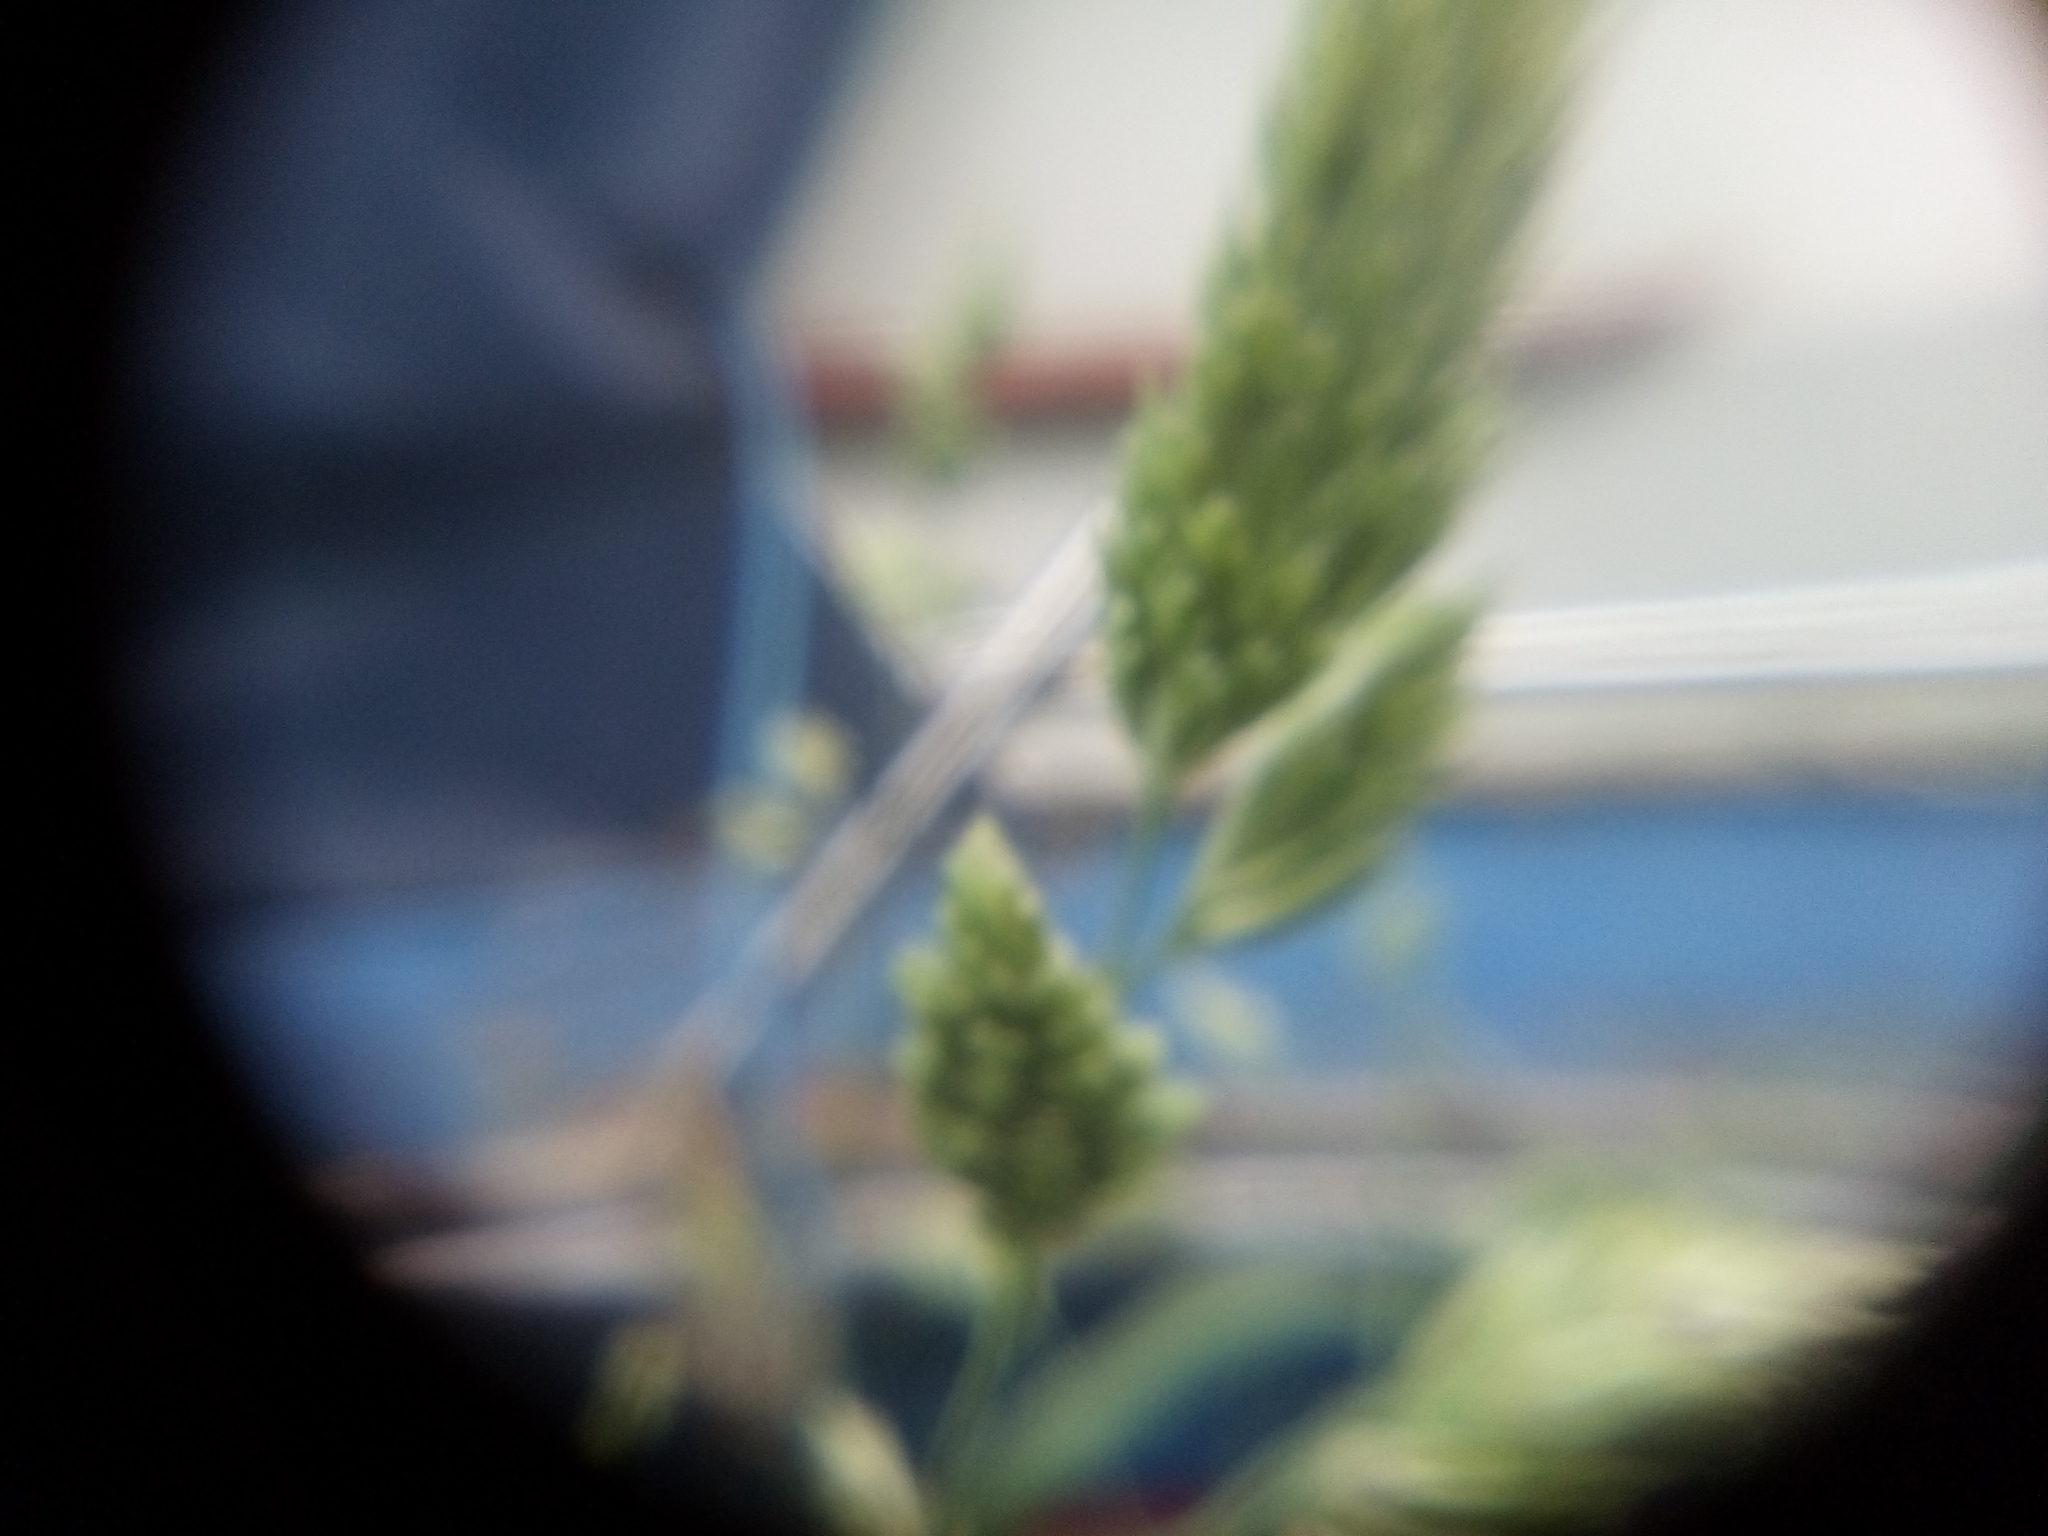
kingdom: Plantae
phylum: Tracheophyta
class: Liliopsida
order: Poales
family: Poaceae
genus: Dactylis
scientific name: Dactylis glomerata
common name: Orchardgrass
